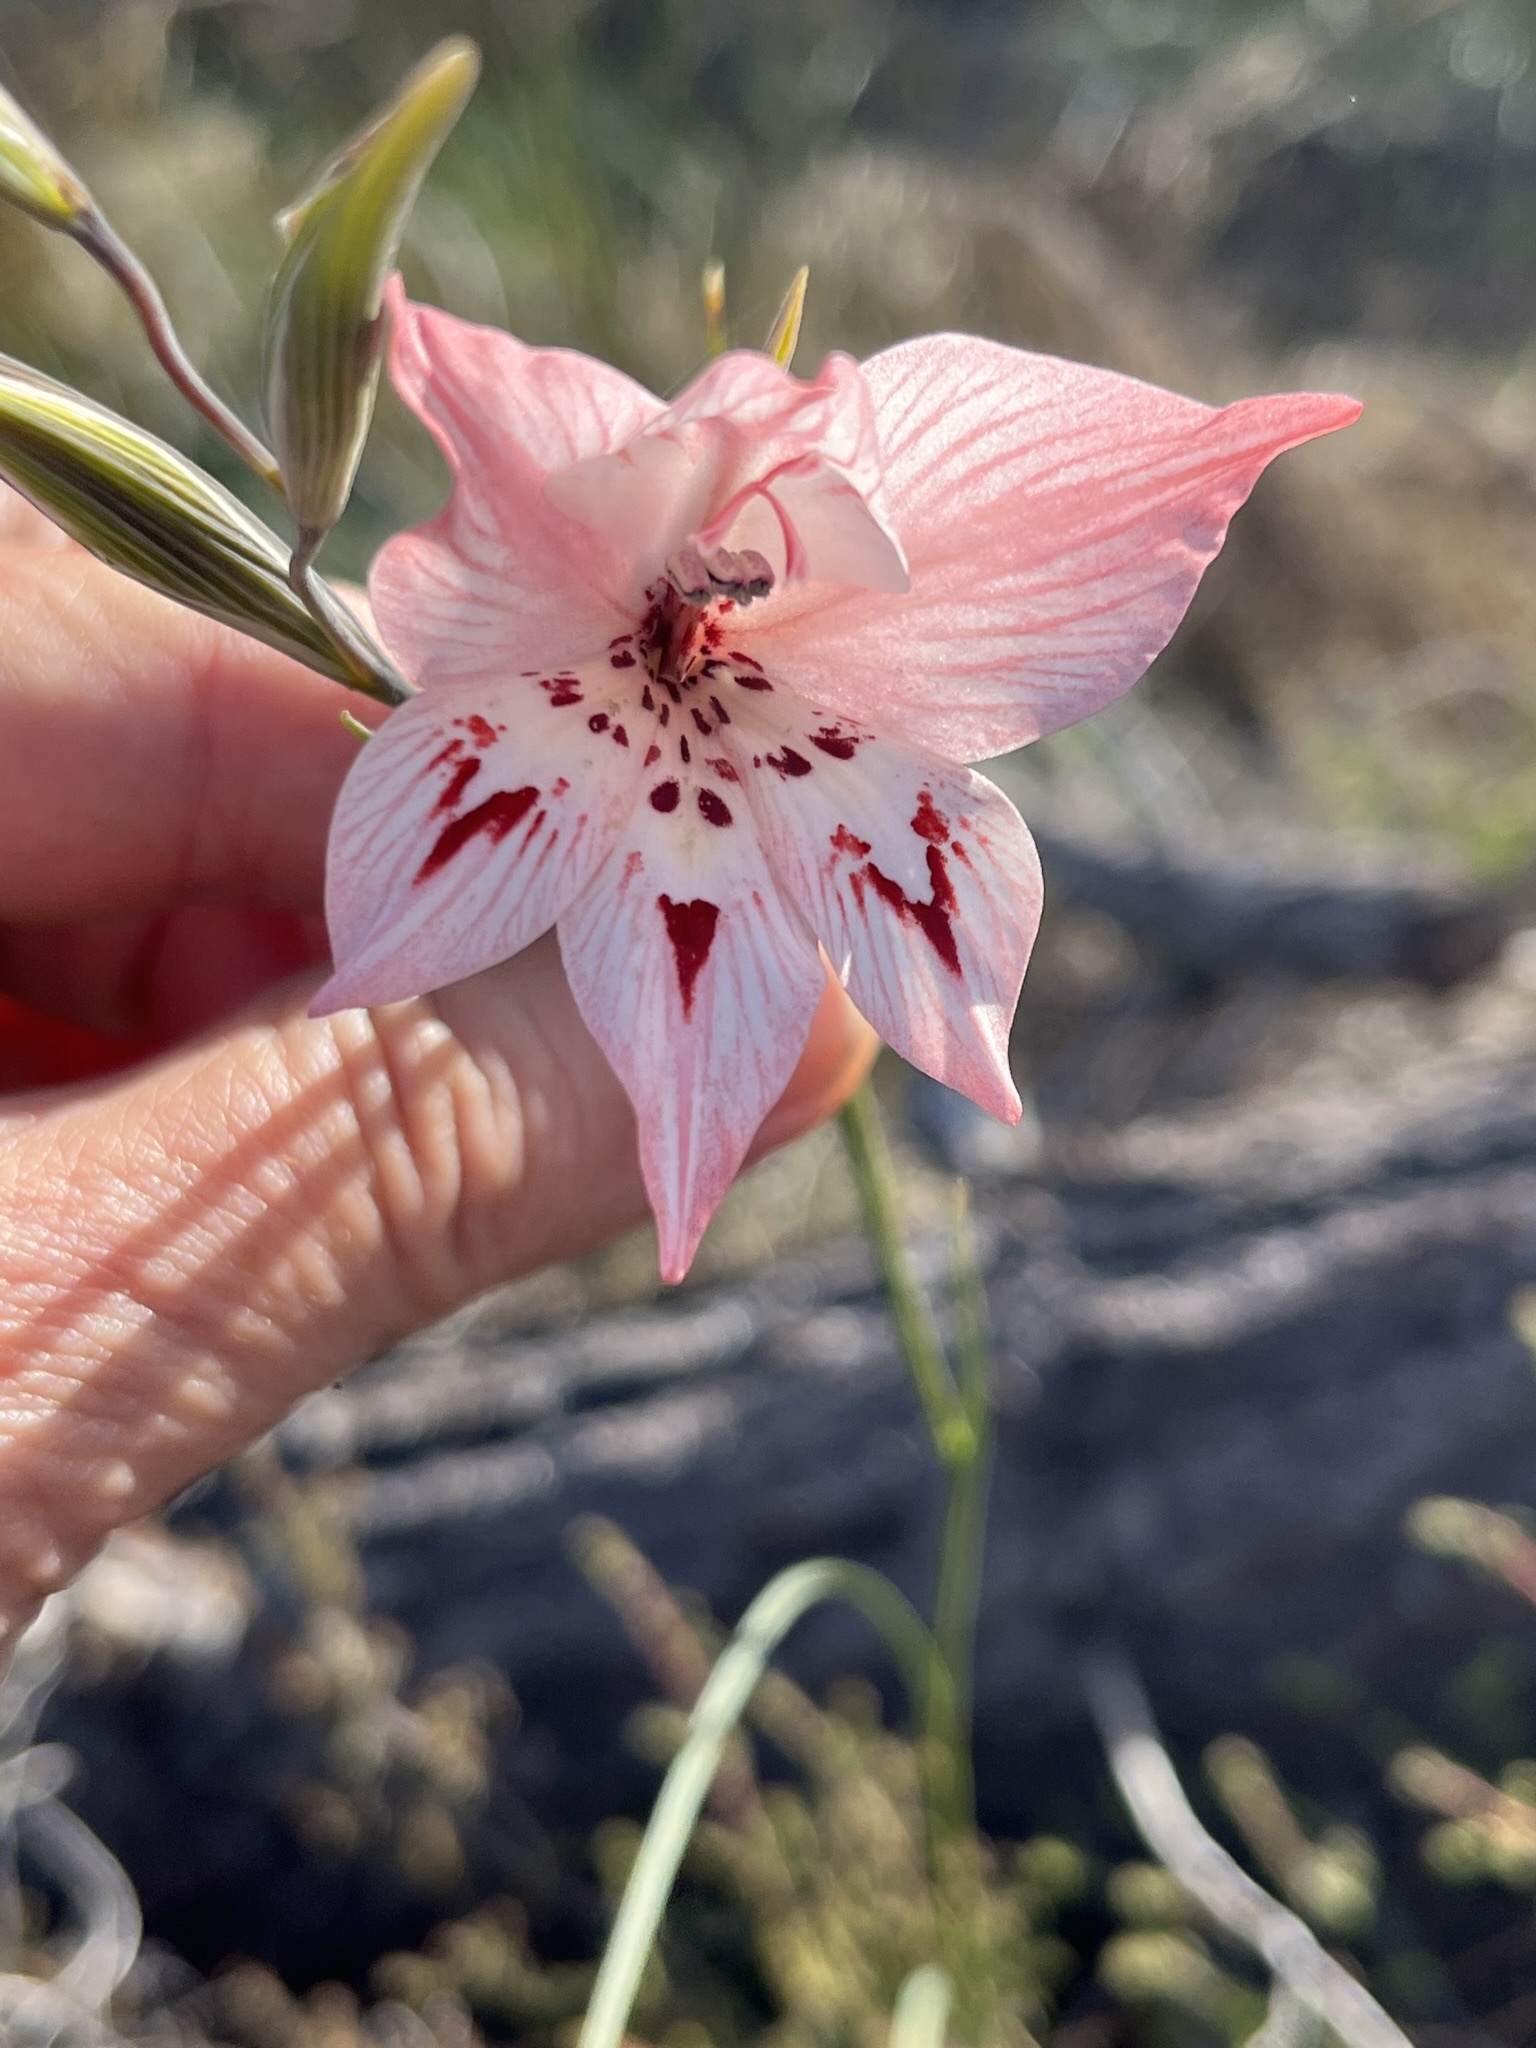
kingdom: Plantae
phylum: Tracheophyta
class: Liliopsida
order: Asparagales
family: Iridaceae
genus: Gladiolus
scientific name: Gladiolus debilis
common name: Painted-lady
